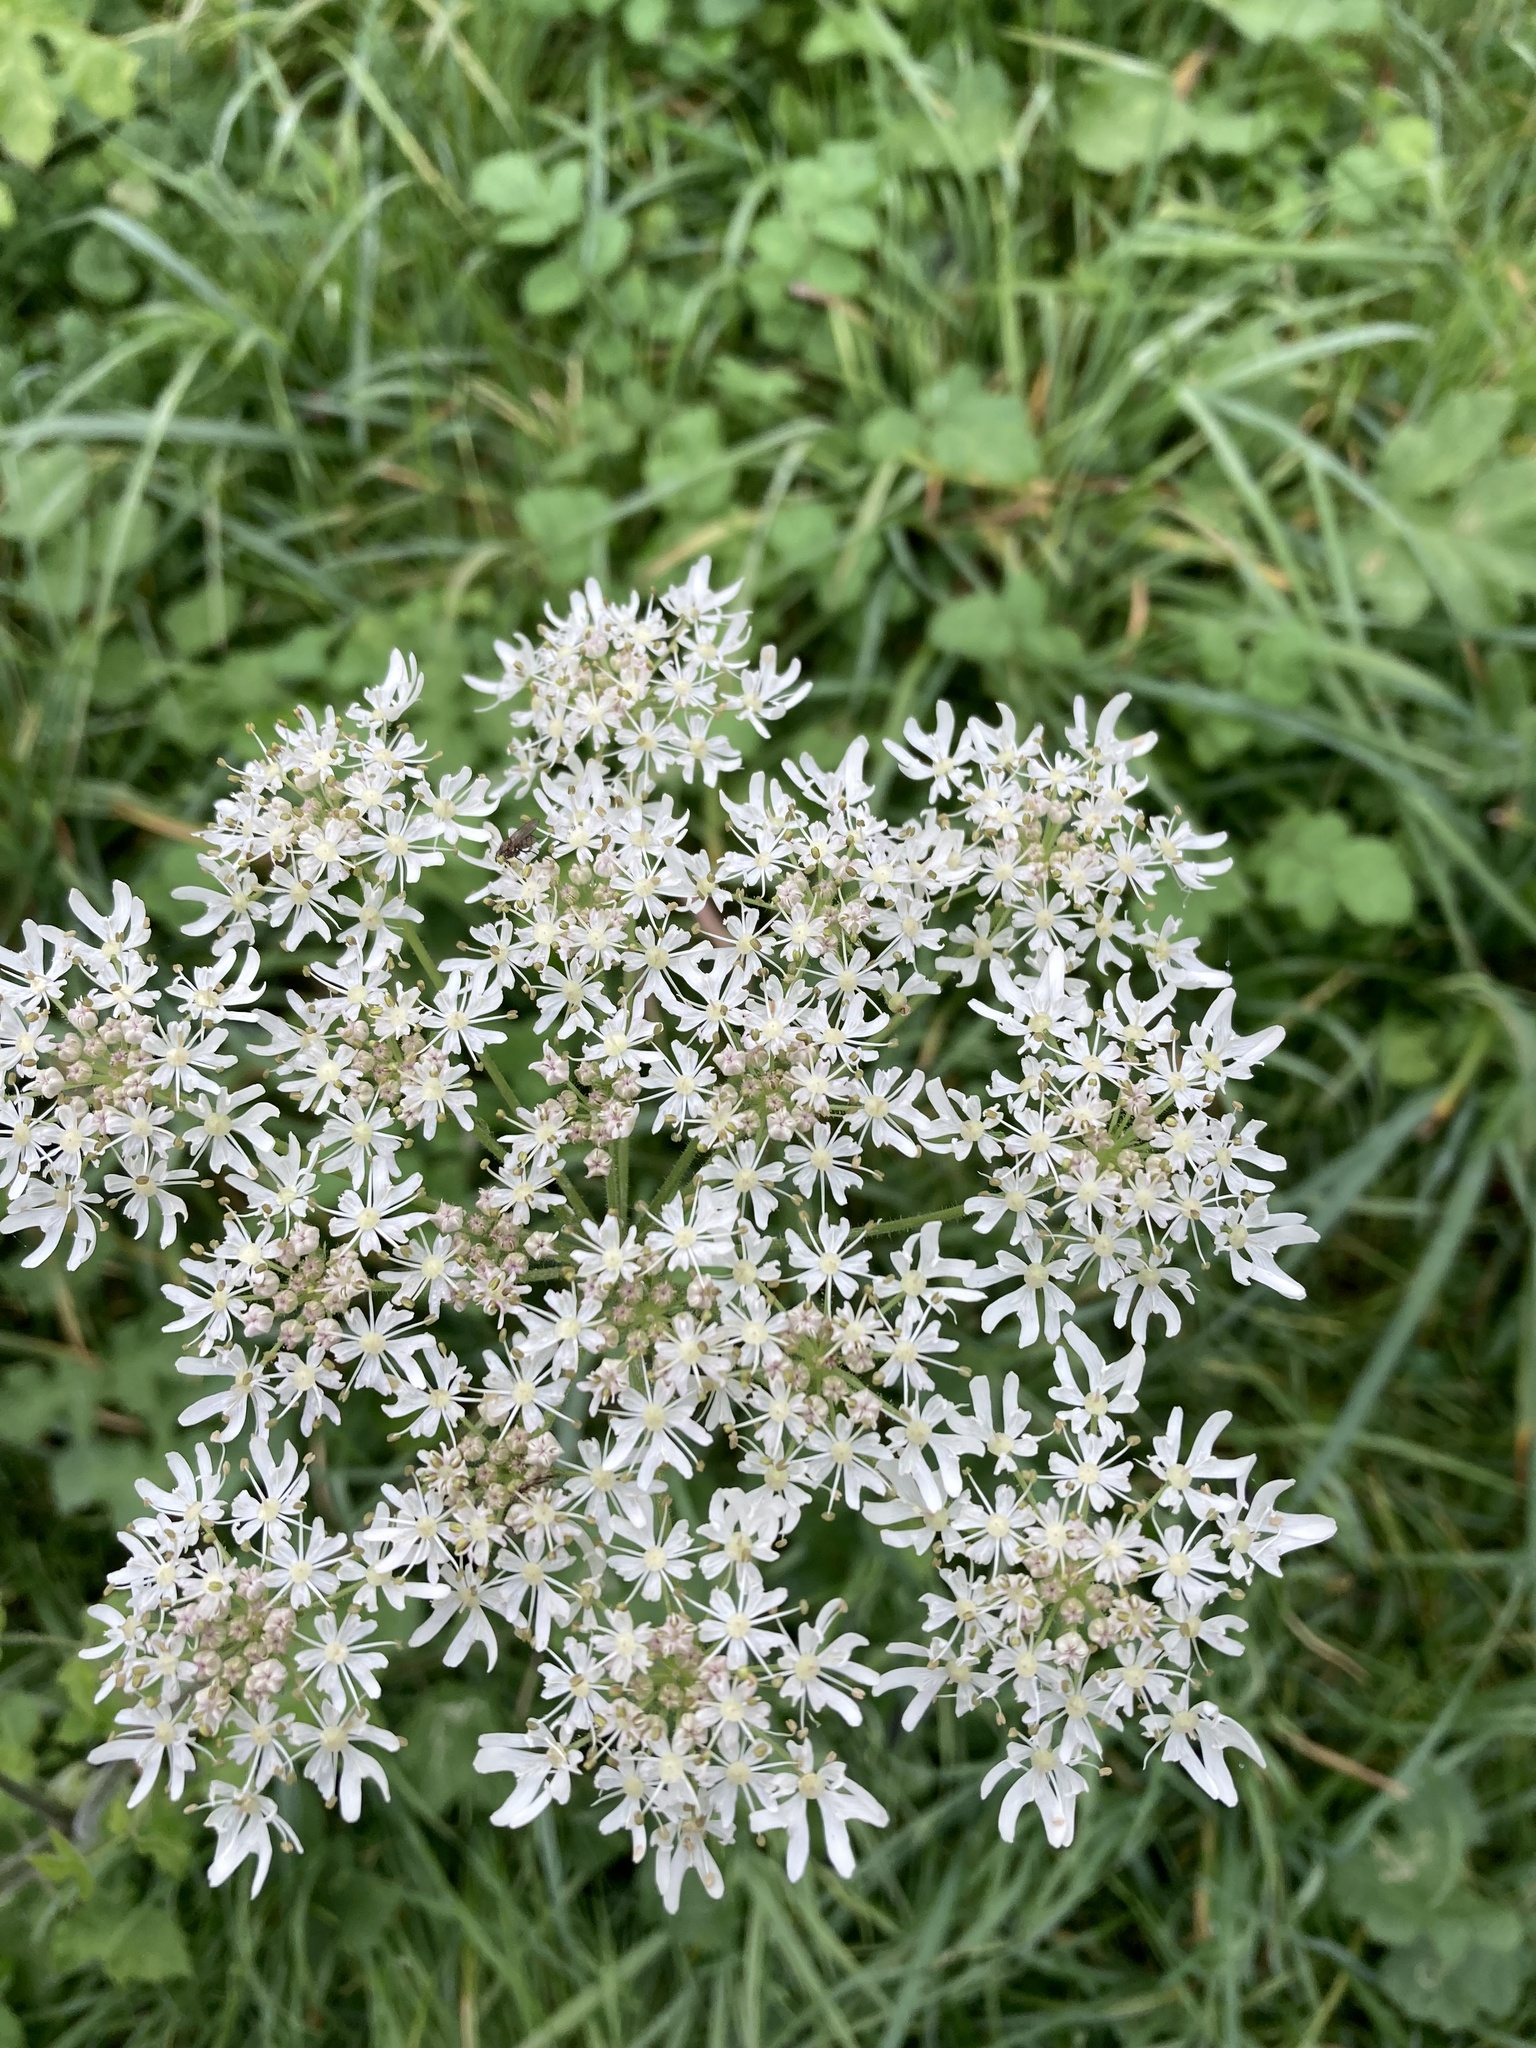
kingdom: Plantae
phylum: Tracheophyta
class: Magnoliopsida
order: Apiales
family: Apiaceae
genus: Heracleum
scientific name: Heracleum sphondylium
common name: Hogweed
